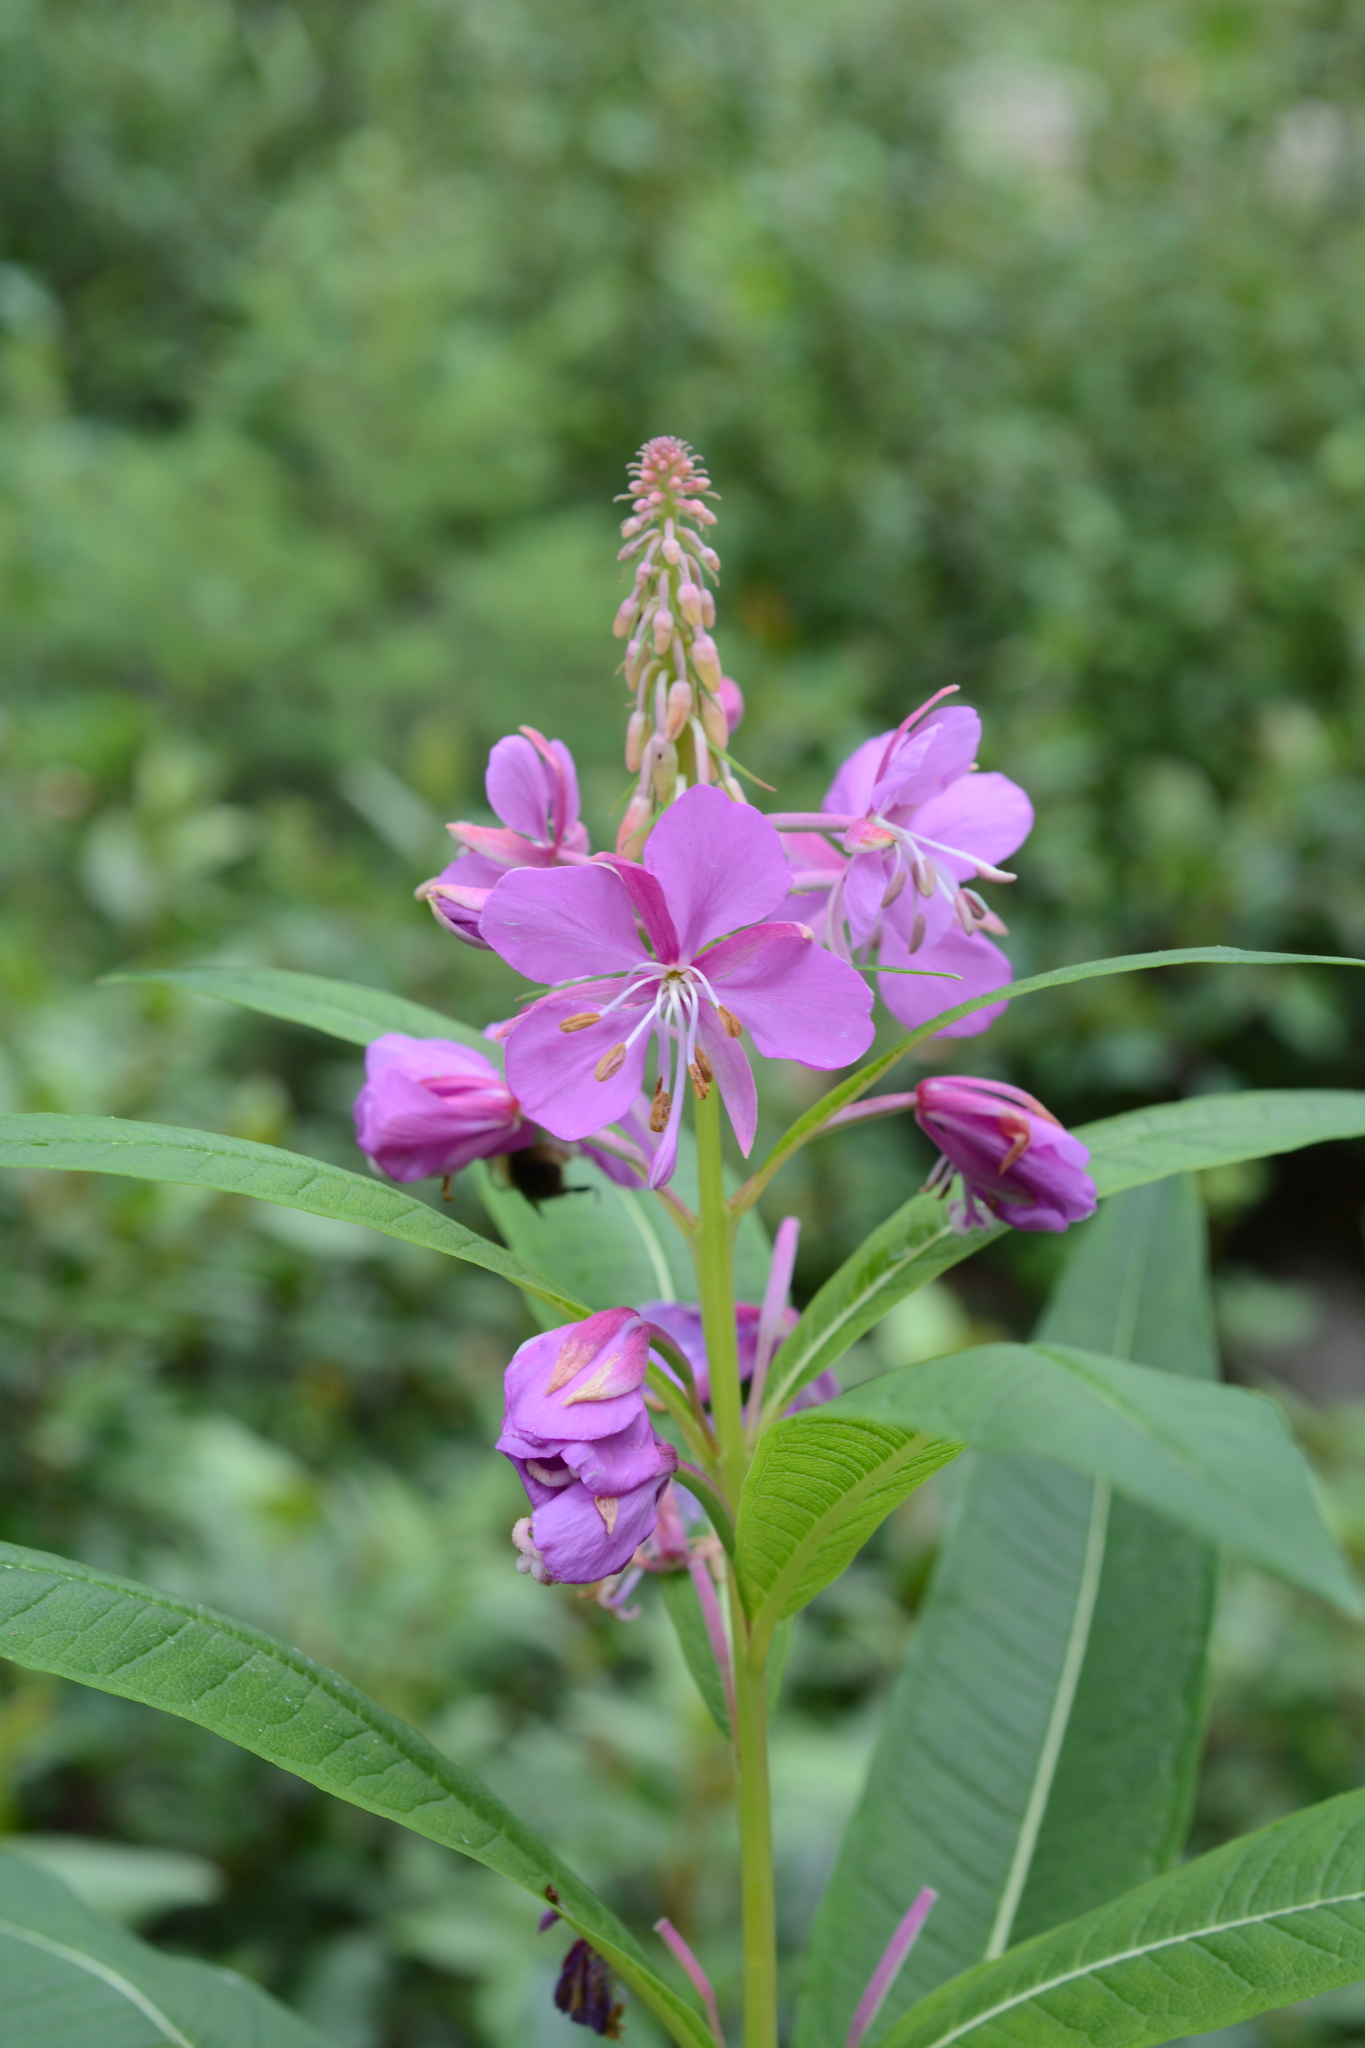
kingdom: Plantae
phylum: Tracheophyta
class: Magnoliopsida
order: Myrtales
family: Onagraceae
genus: Chamaenerion
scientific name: Chamaenerion angustifolium
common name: Fireweed
